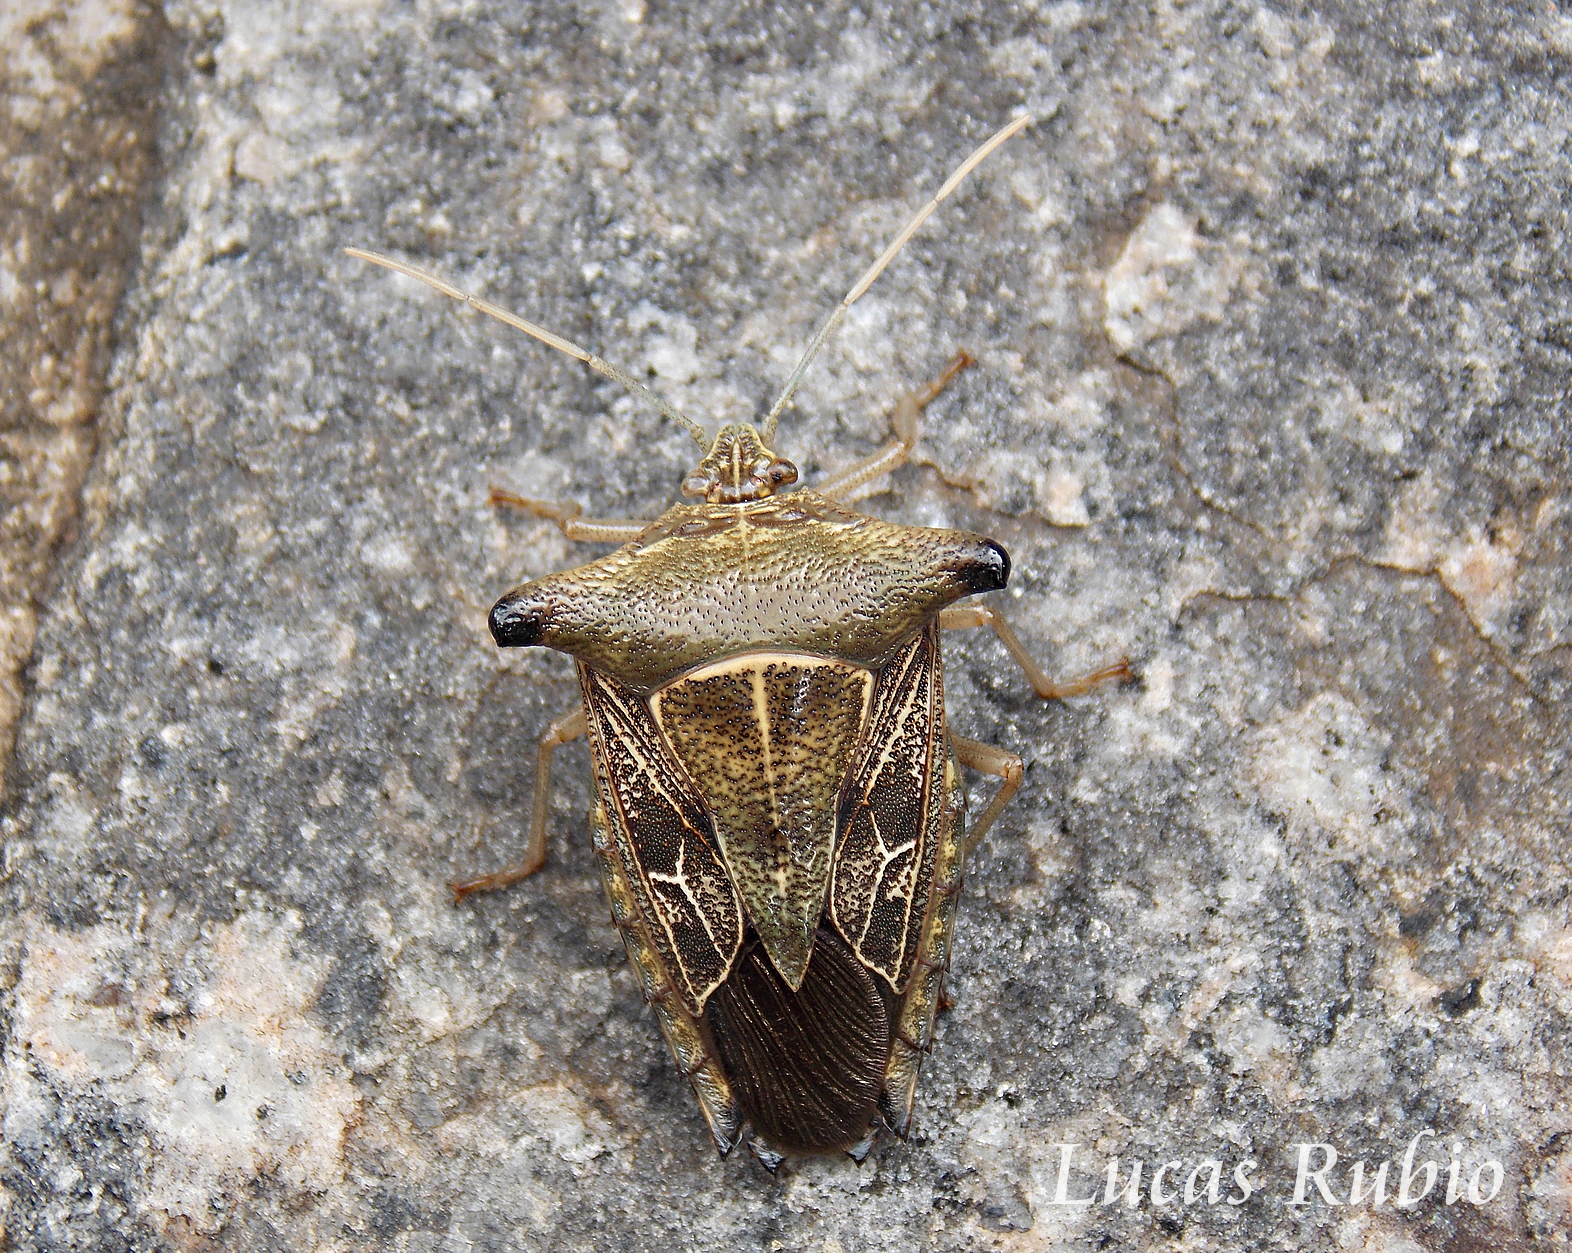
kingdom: Animalia
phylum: Arthropoda
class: Insecta
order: Hemiptera
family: Pentatomidae
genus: Edessa
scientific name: Edessa
